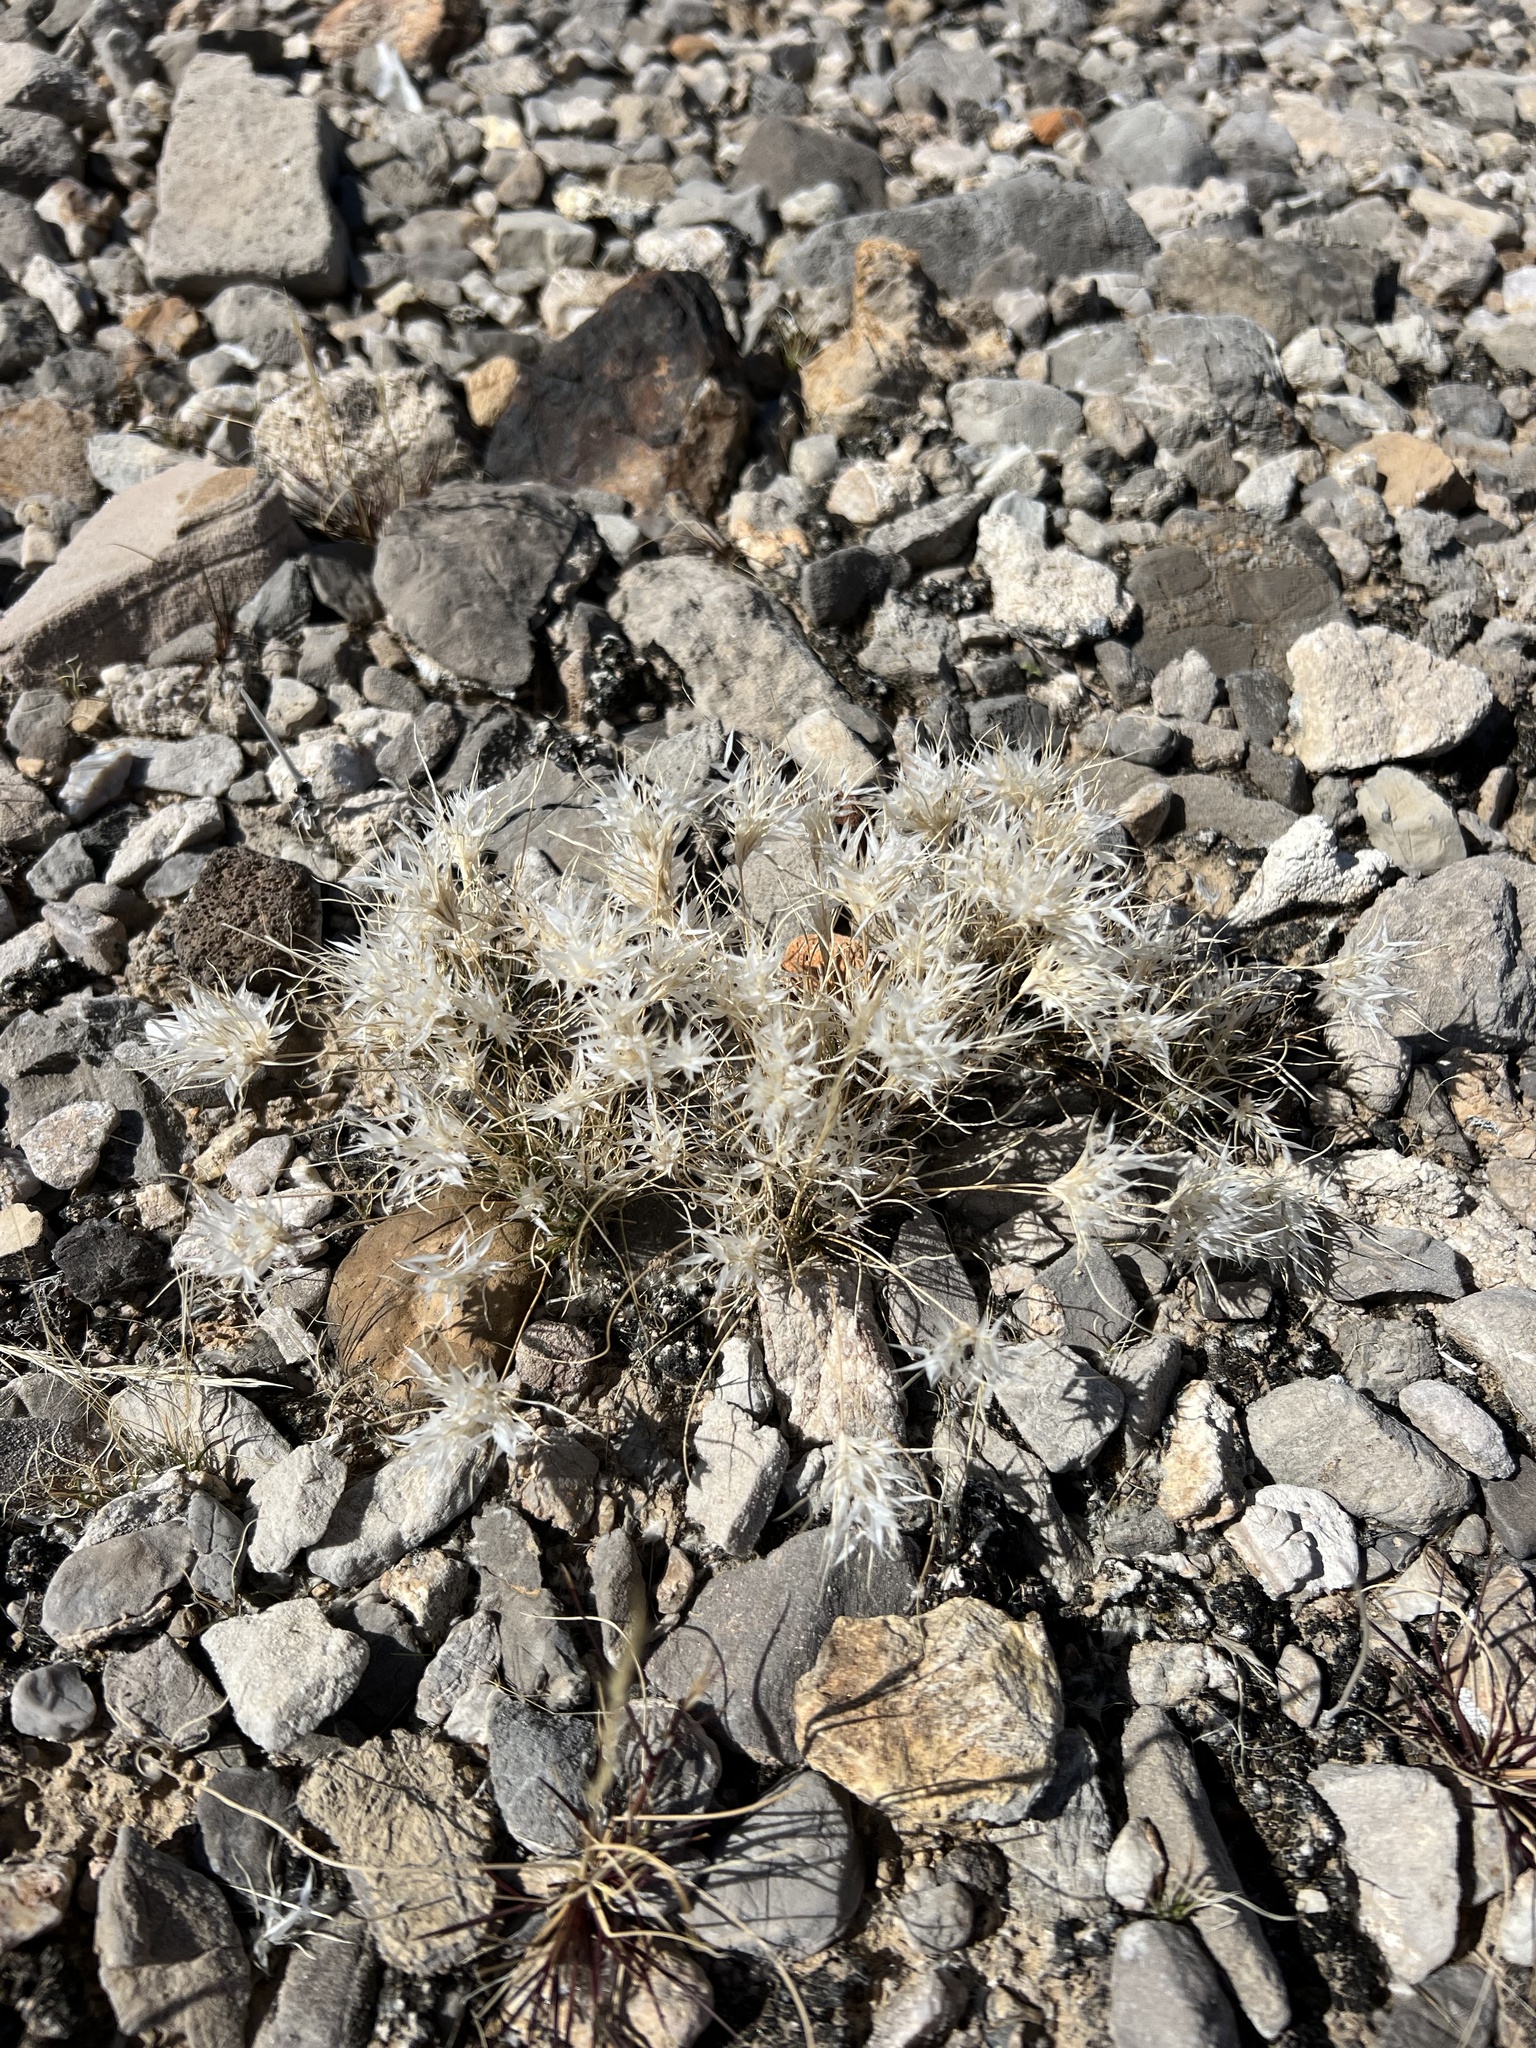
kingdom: Plantae
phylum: Tracheophyta
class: Liliopsida
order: Poales
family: Poaceae
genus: Dasyochloa
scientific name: Dasyochloa pulchella
